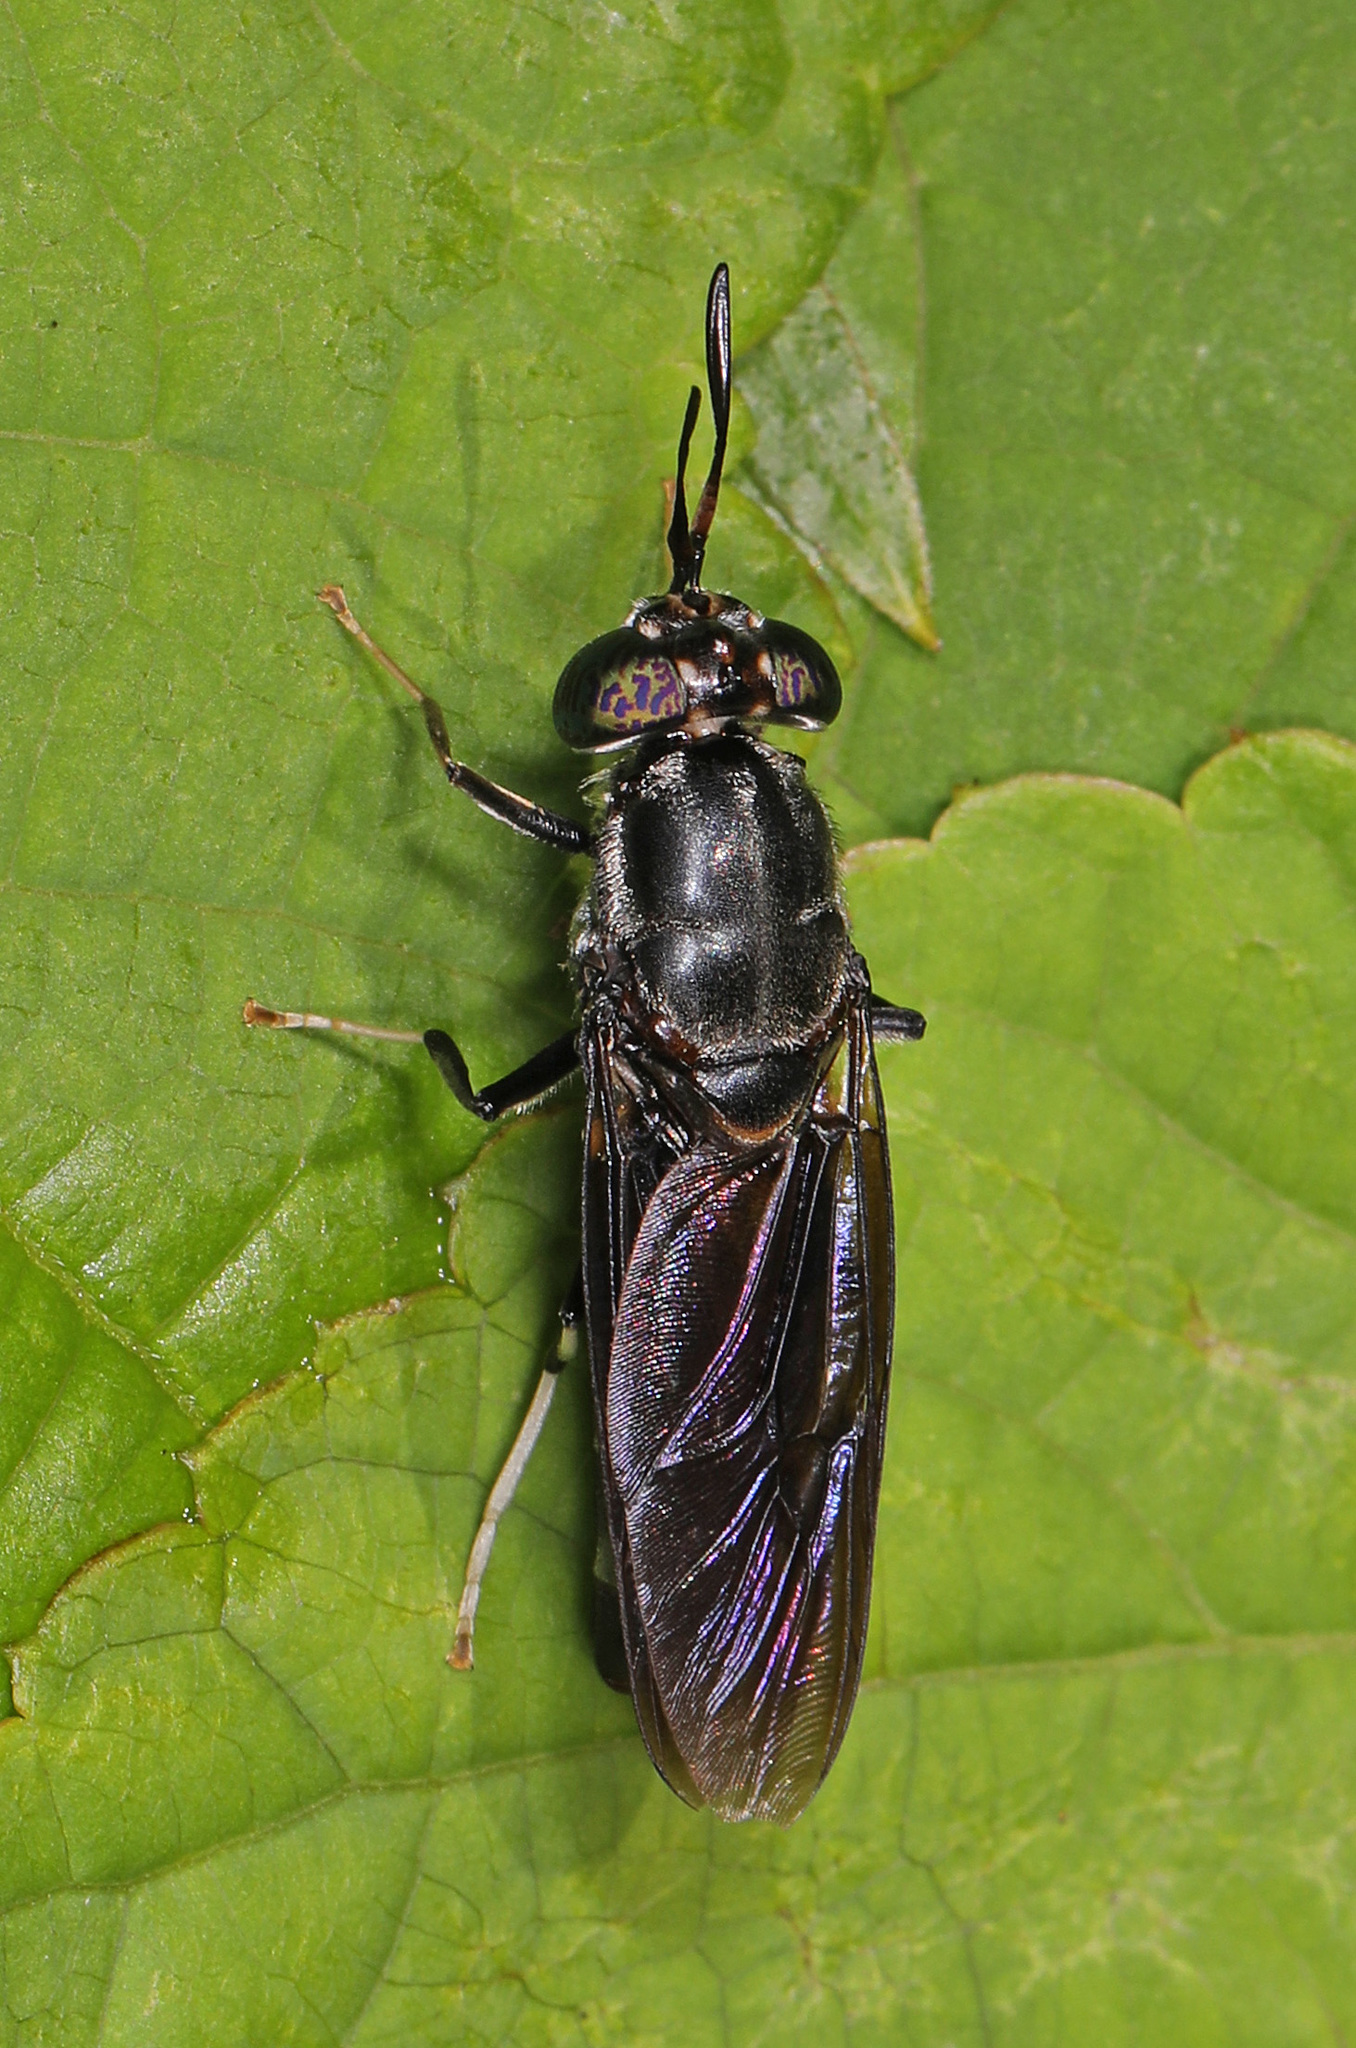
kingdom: Animalia
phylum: Arthropoda
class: Insecta
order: Diptera
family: Stratiomyidae
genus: Hermetia
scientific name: Hermetia illucens
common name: Black soldier fly
